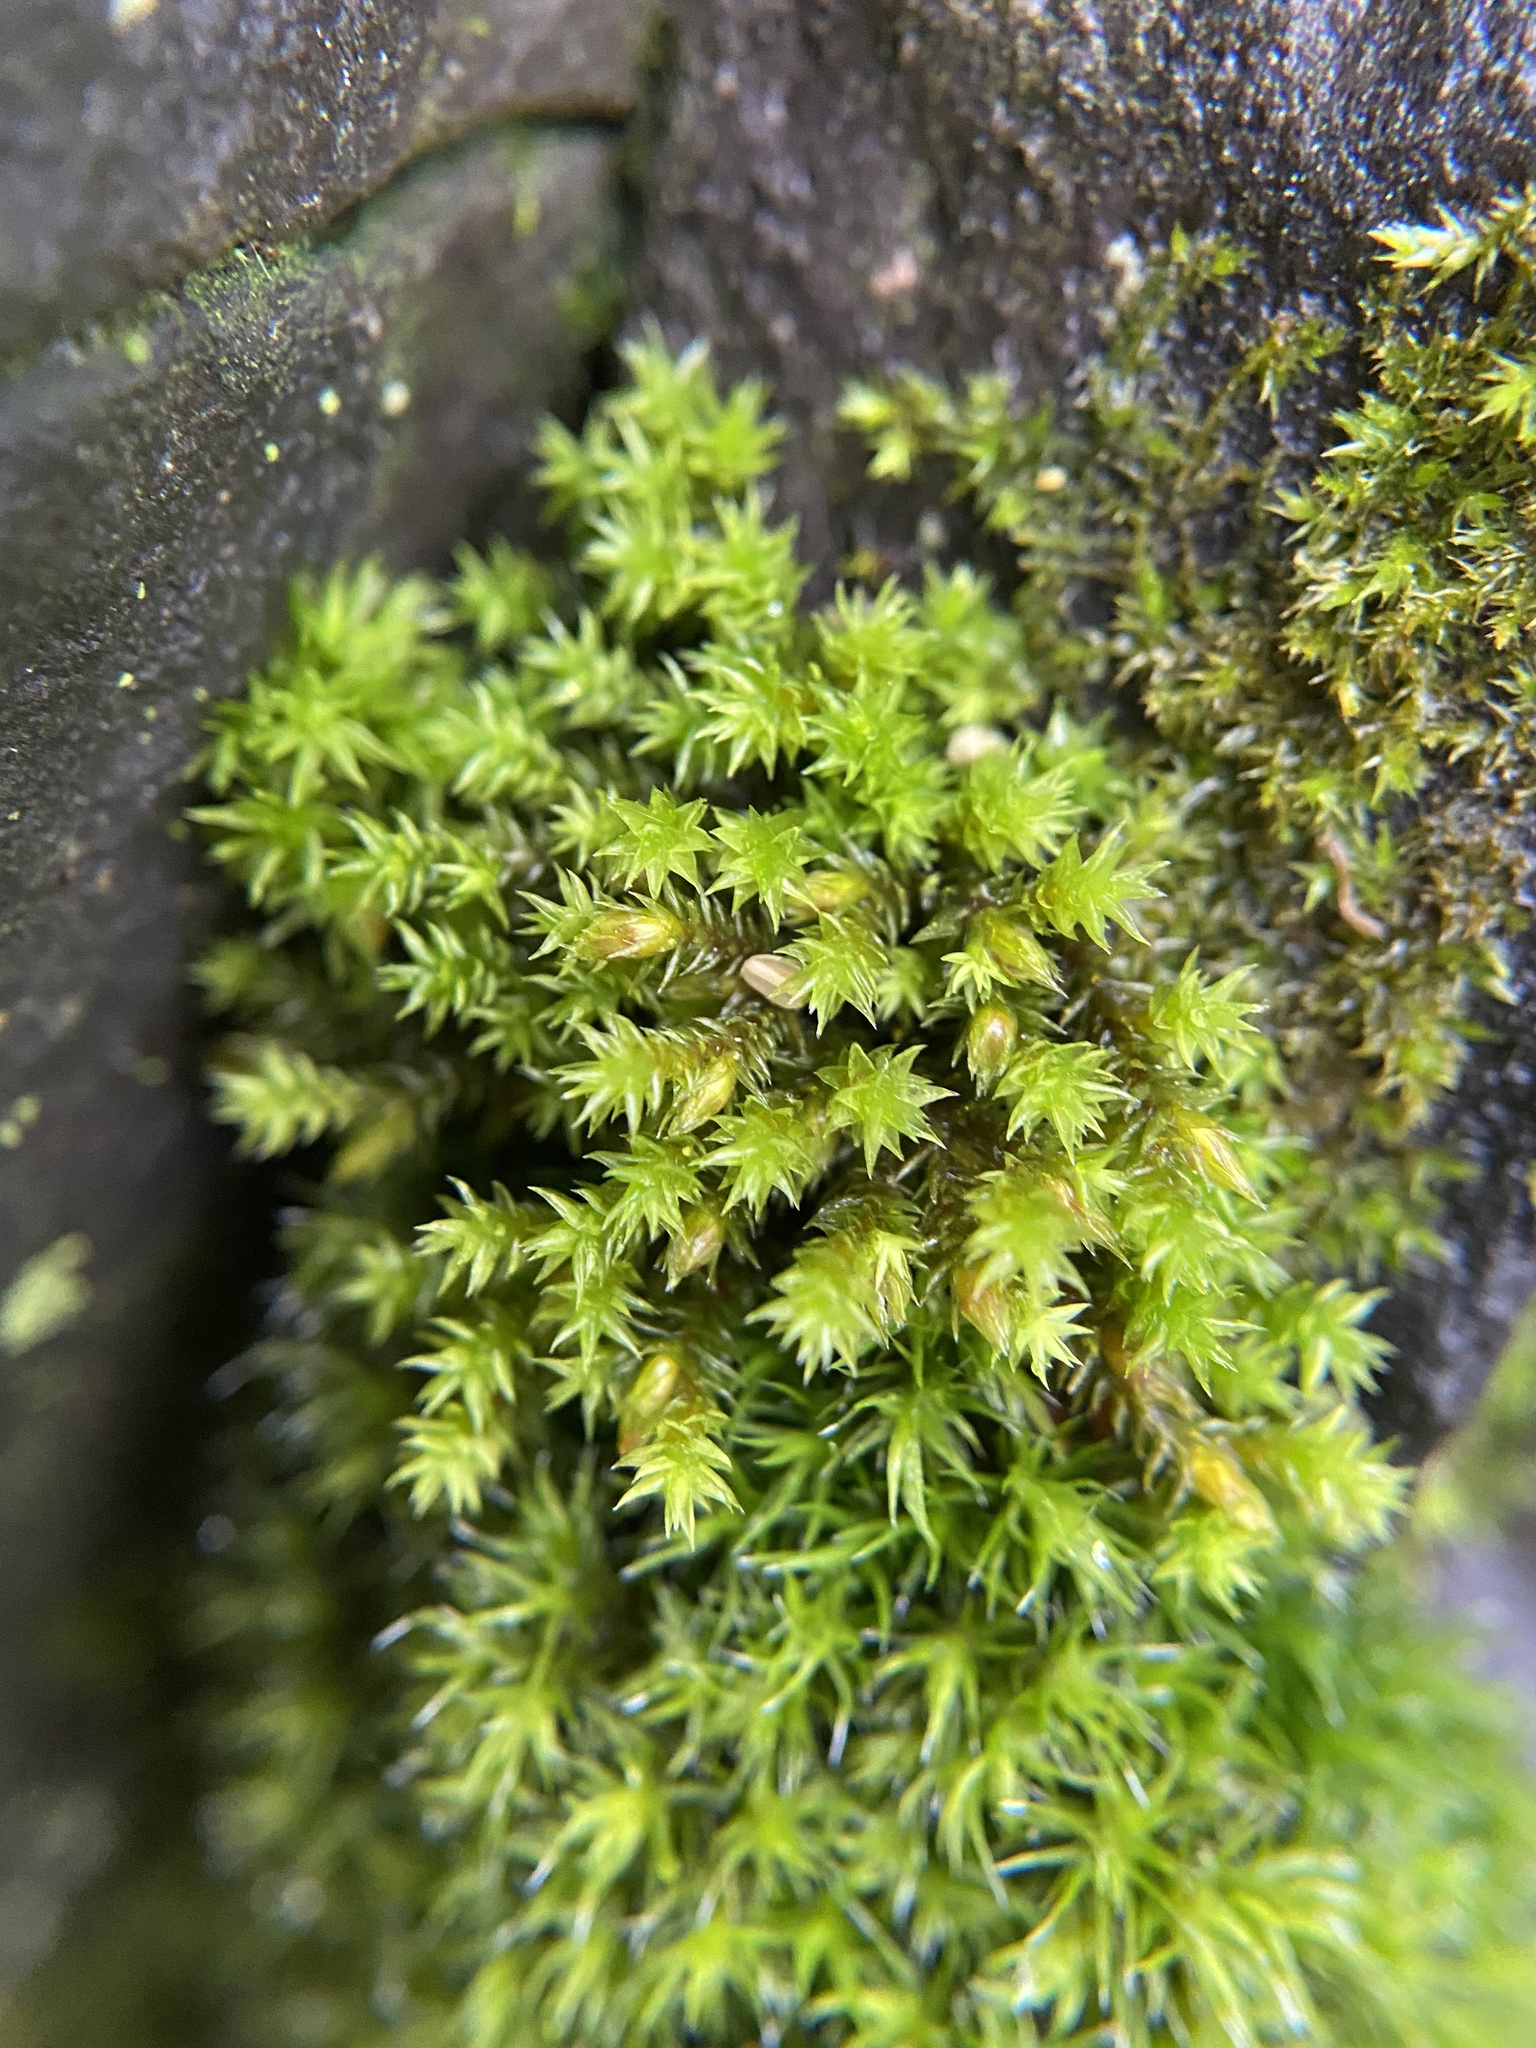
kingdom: Plantae
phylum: Bryophyta
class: Bryopsida
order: Hedwigiales
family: Hedwigiaceae
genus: Hedwigia
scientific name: Hedwigia ciliata
